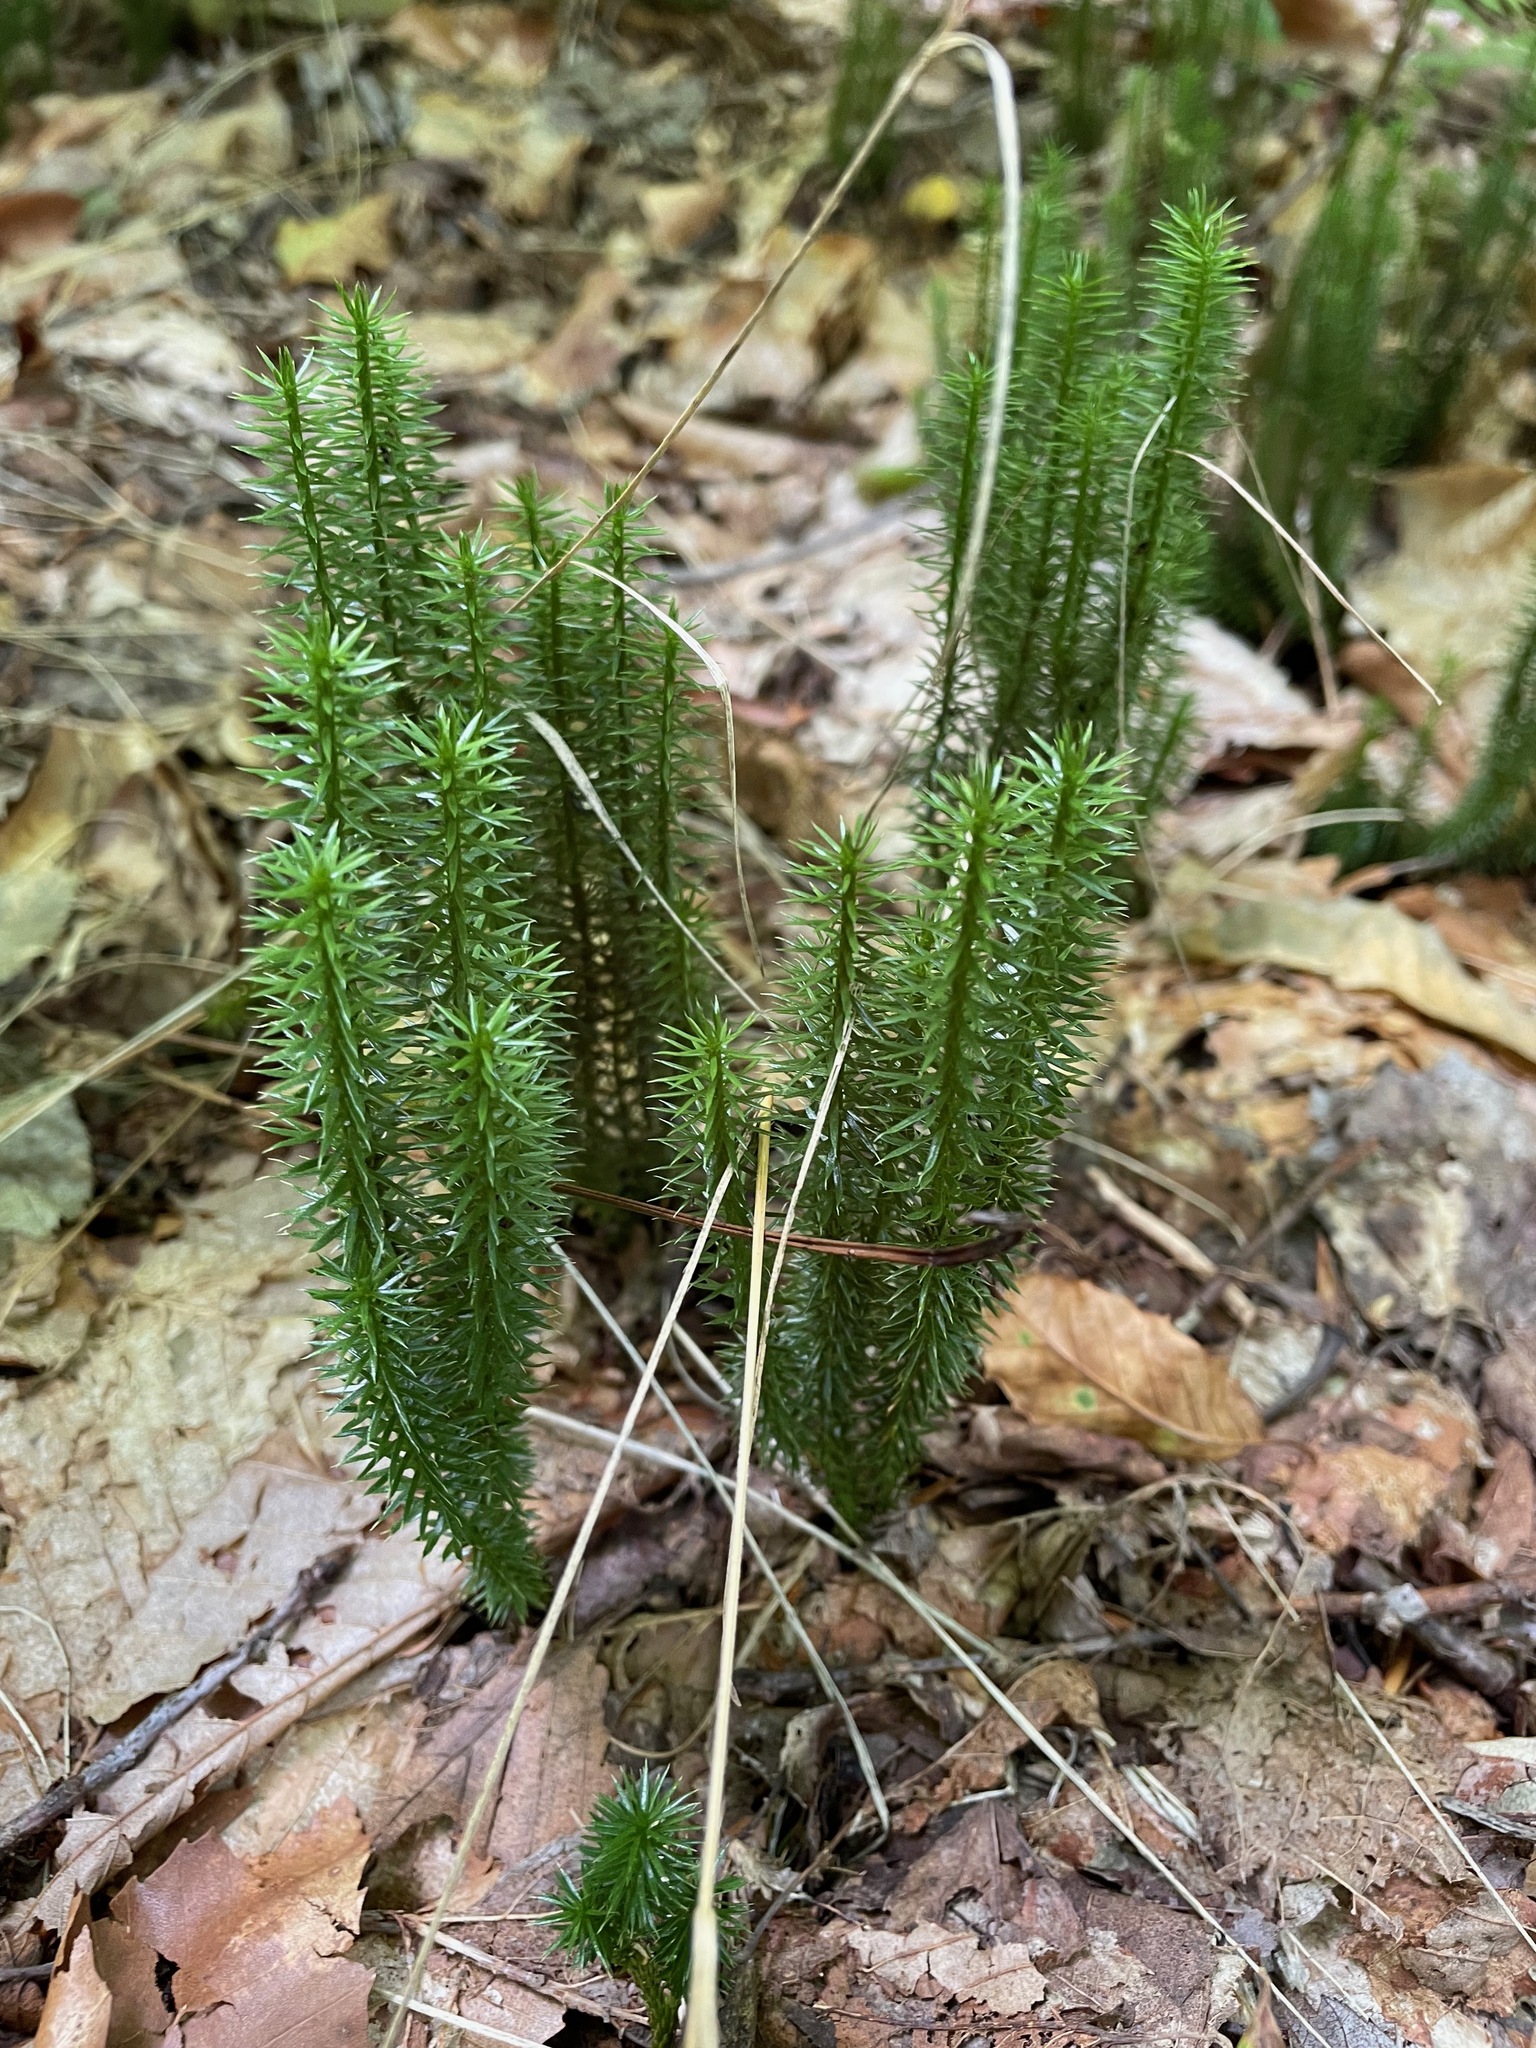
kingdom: Plantae
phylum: Tracheophyta
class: Lycopodiopsida
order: Lycopodiales
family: Lycopodiaceae
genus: Spinulum
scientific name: Spinulum annotinum
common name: Interrupted club-moss
